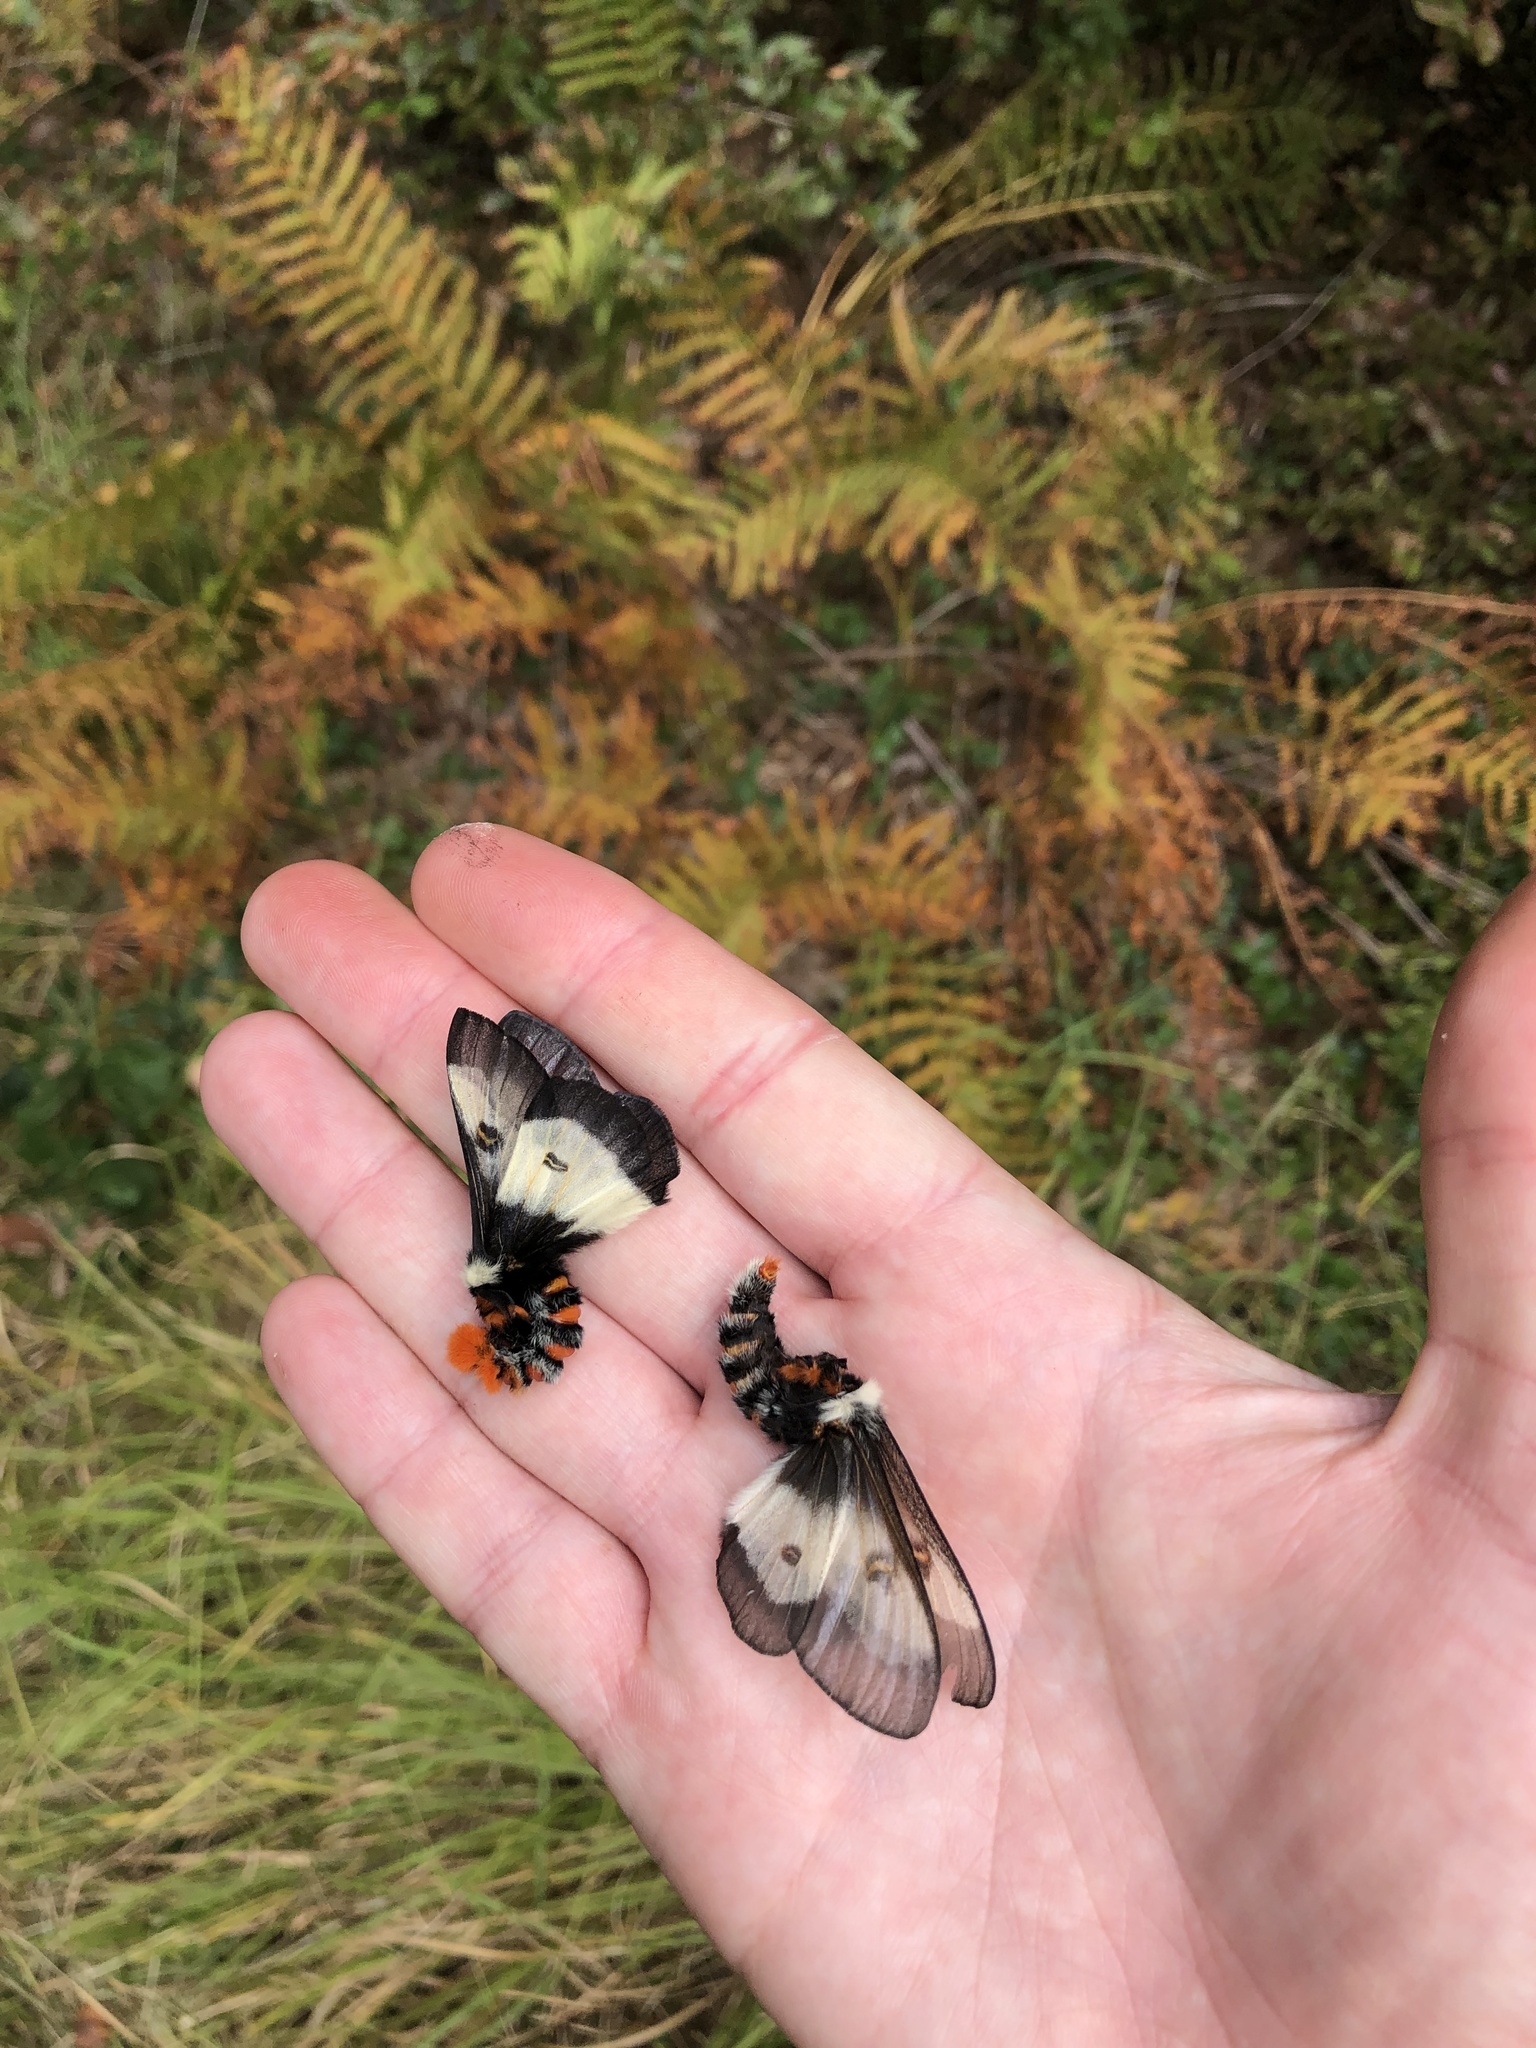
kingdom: Animalia
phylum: Arthropoda
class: Insecta
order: Lepidoptera
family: Saturniidae
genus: Hemileuca
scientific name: Hemileuca maia
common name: Eastern buckmoth
